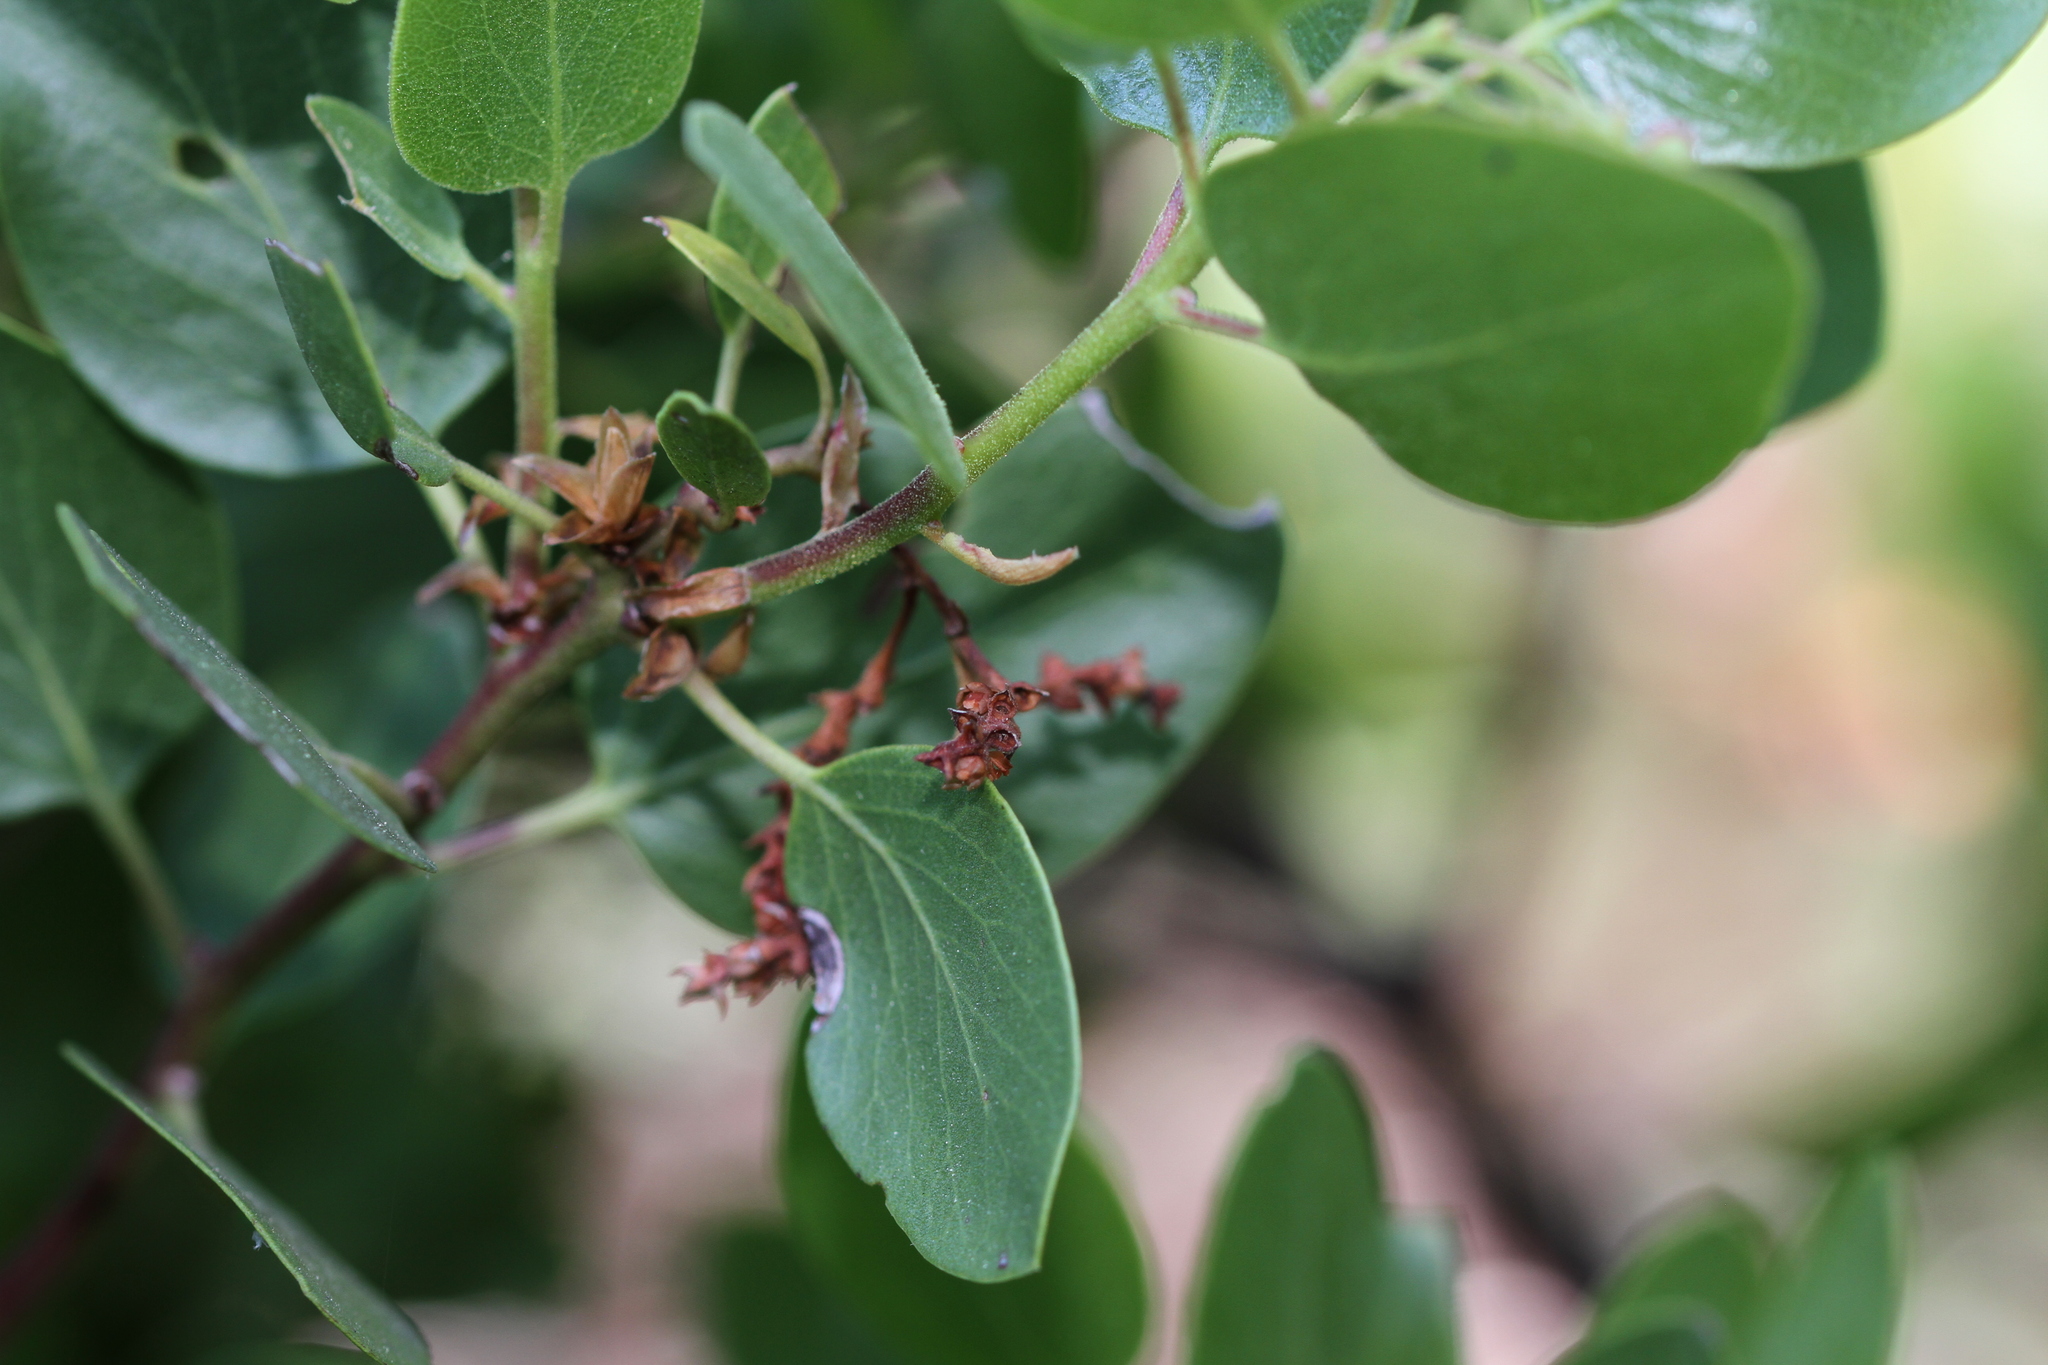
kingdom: Plantae
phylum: Tracheophyta
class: Magnoliopsida
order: Ericales
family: Ericaceae
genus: Arctostaphylos
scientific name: Arctostaphylos patula
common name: Green-leaf manzanita
